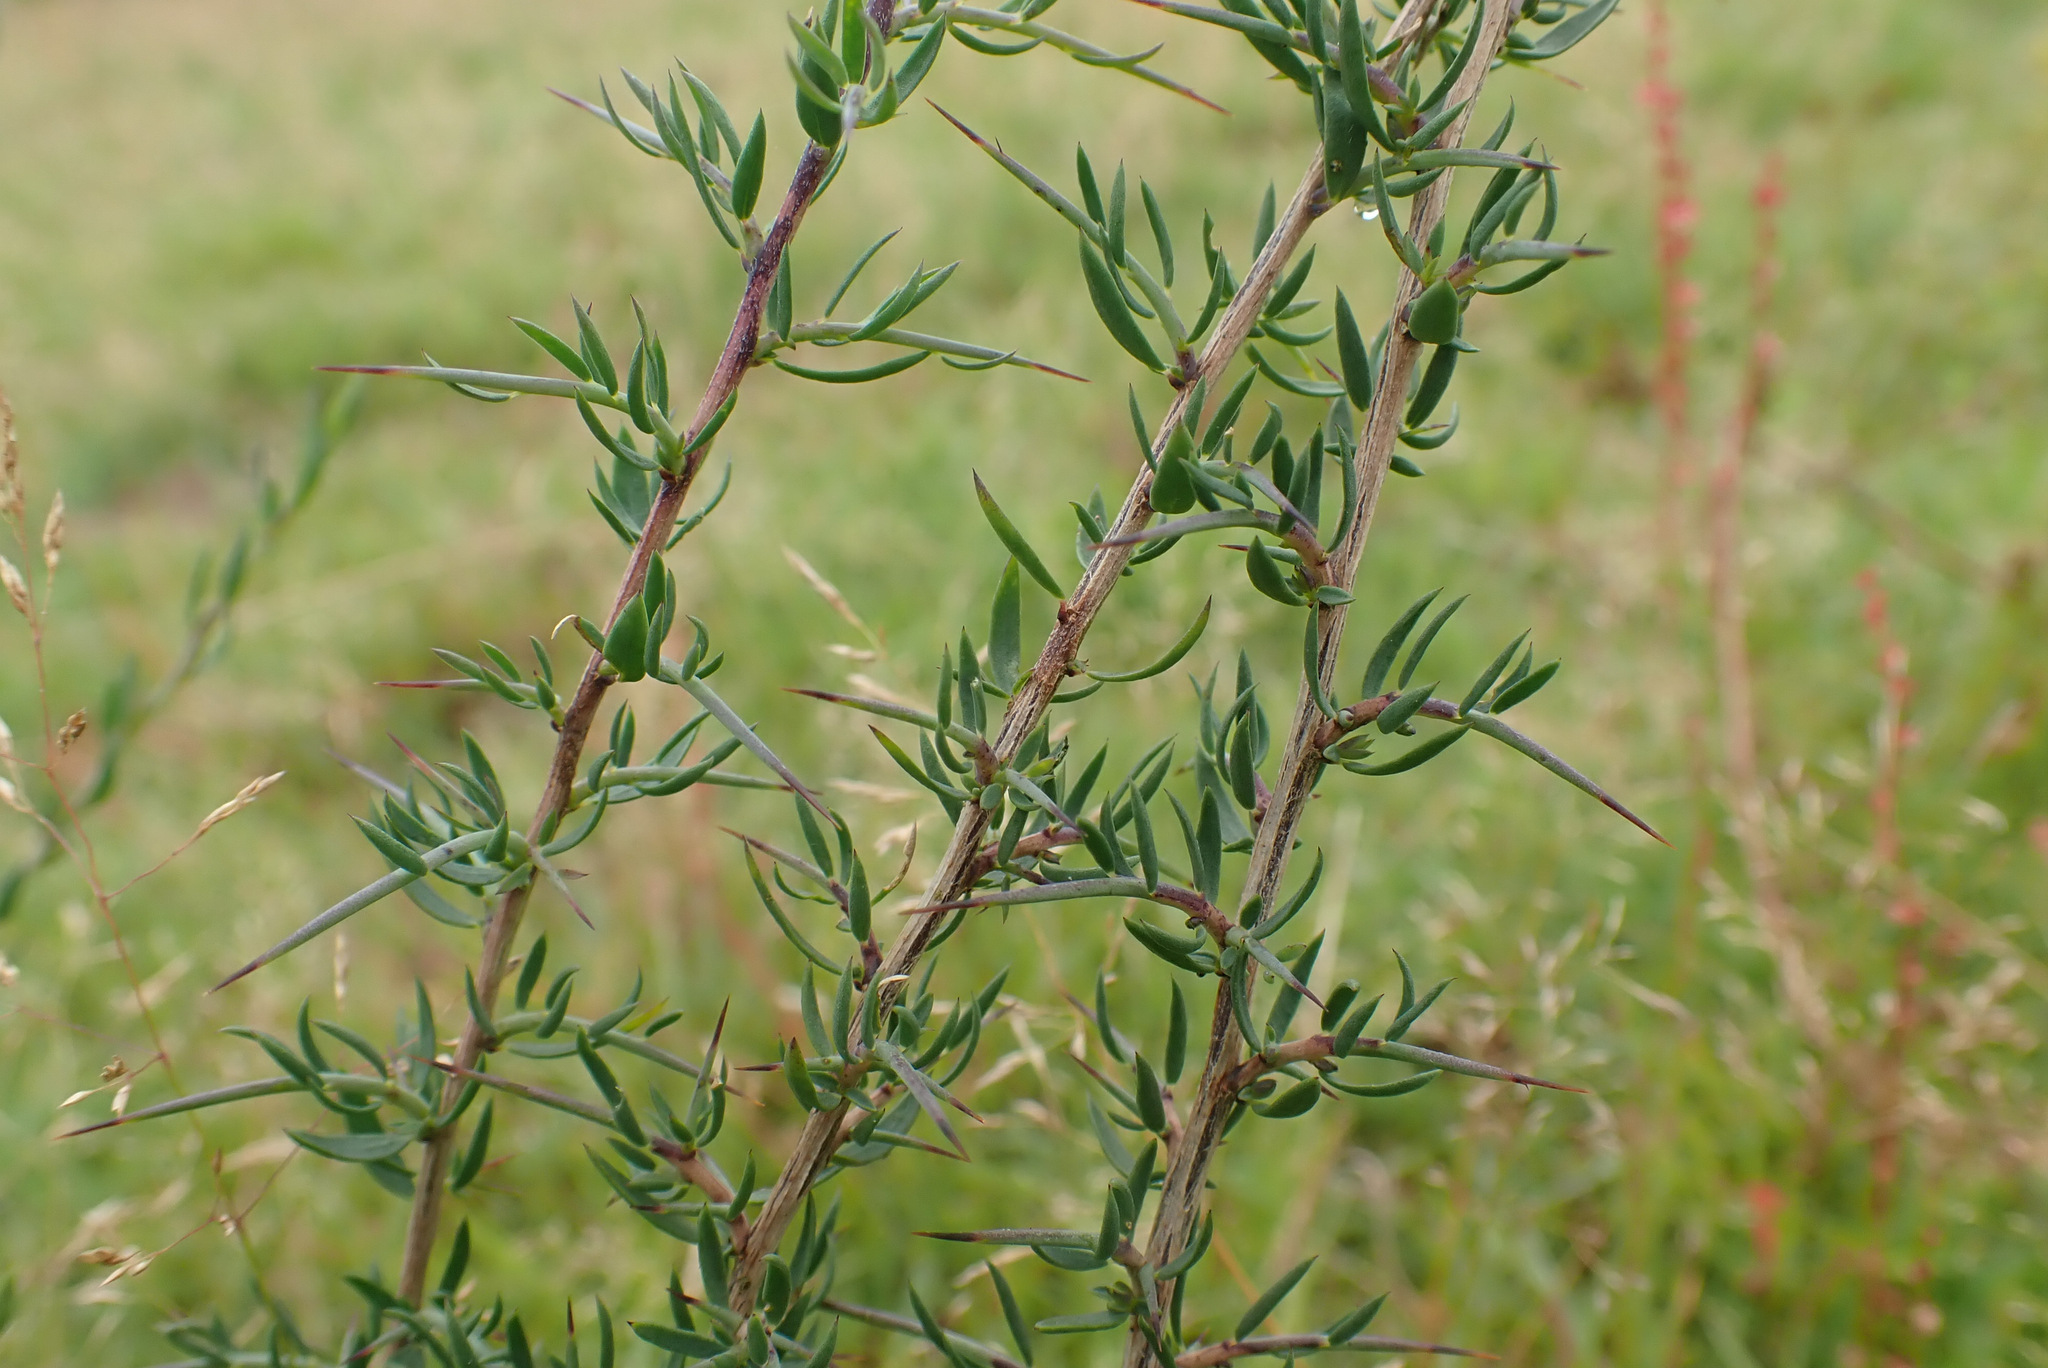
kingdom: Plantae
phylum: Tracheophyta
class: Magnoliopsida
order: Fabales
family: Fabaceae
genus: Genista
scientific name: Genista anglica
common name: Petty whin
